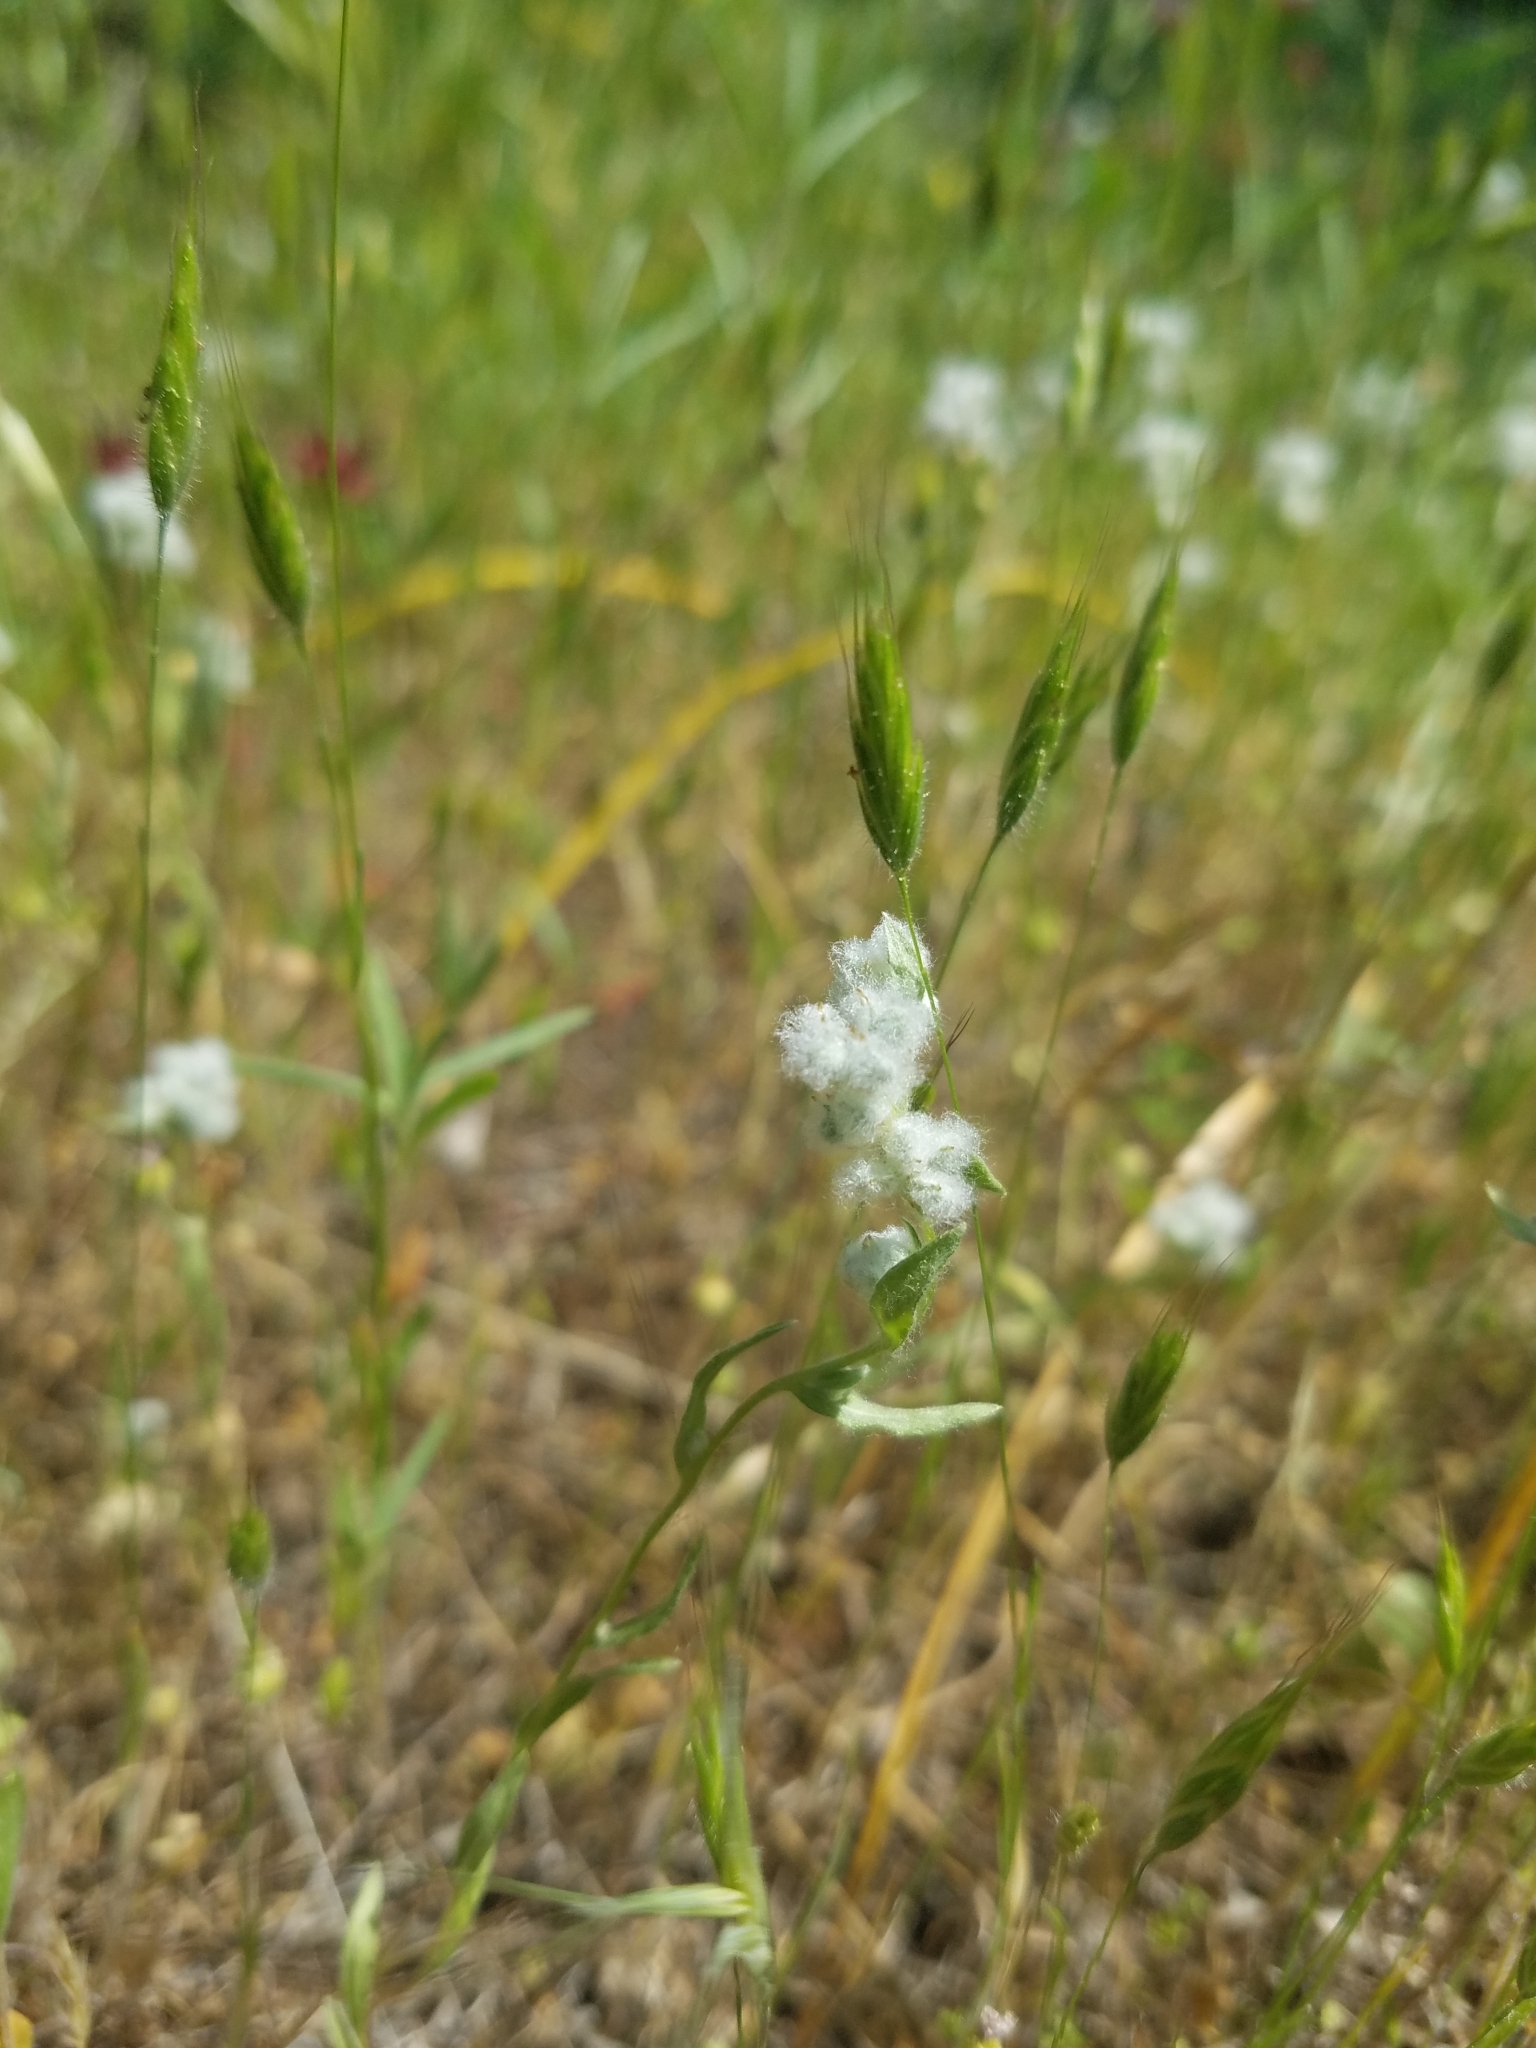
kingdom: Plantae
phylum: Tracheophyta
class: Magnoliopsida
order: Asterales
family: Asteraceae
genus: Bombycilaena
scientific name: Bombycilaena californica
